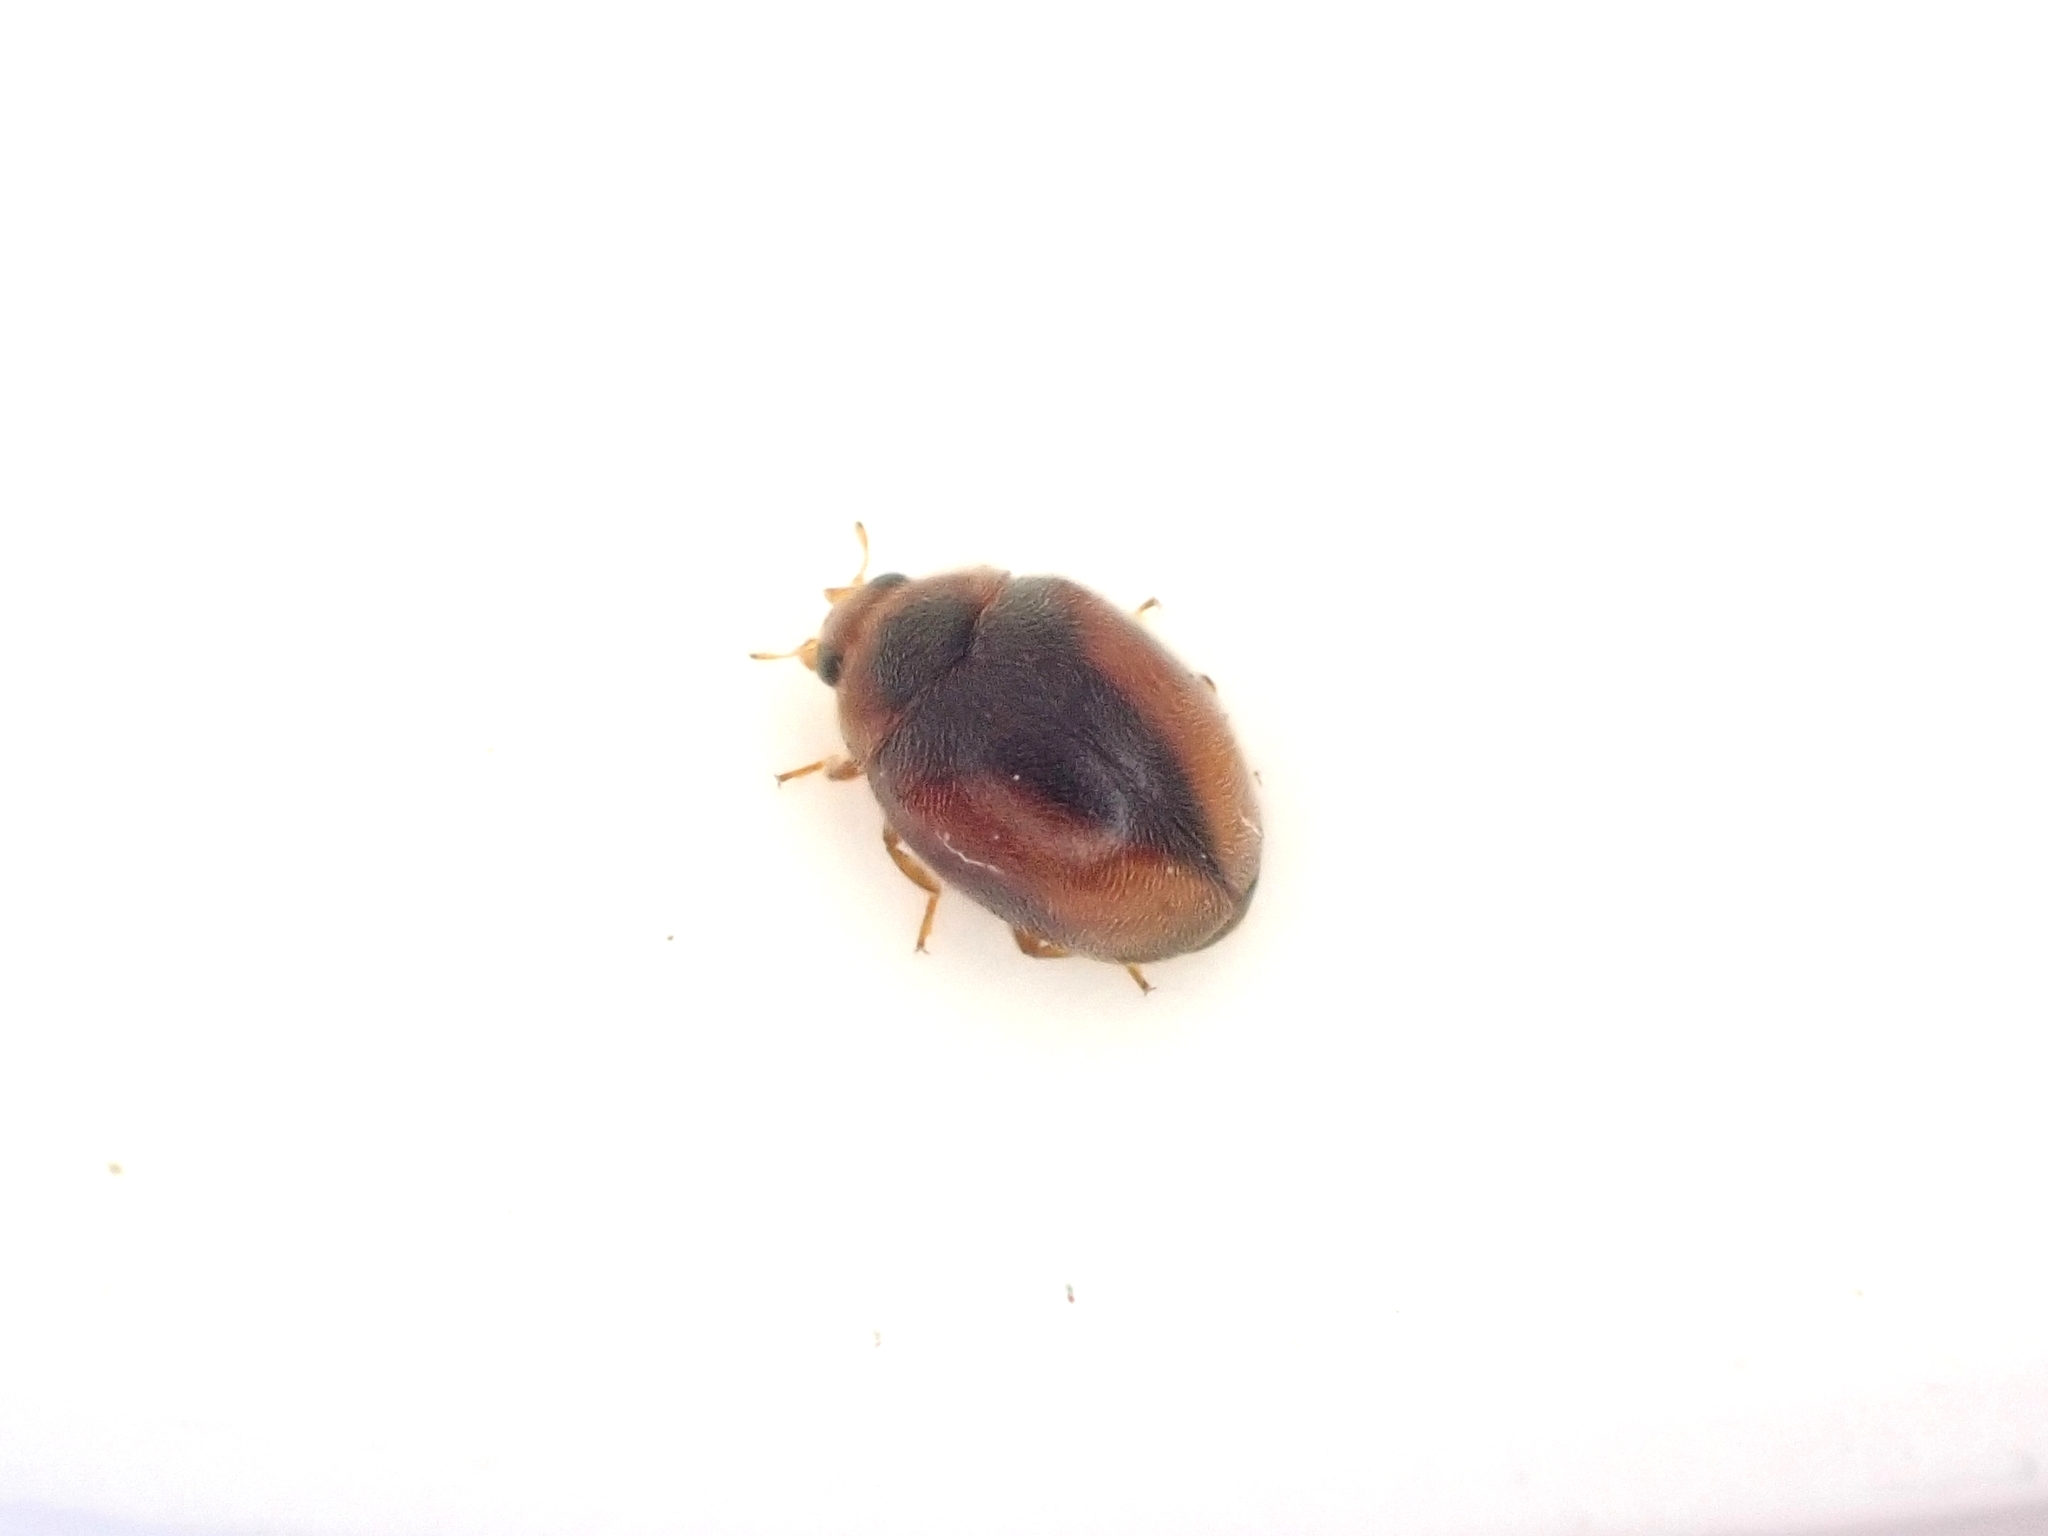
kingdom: Animalia
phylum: Arthropoda
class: Insecta
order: Coleoptera
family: Coccinellidae
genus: Scymnus
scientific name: Scymnus loewii
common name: Dusky lady beetle
